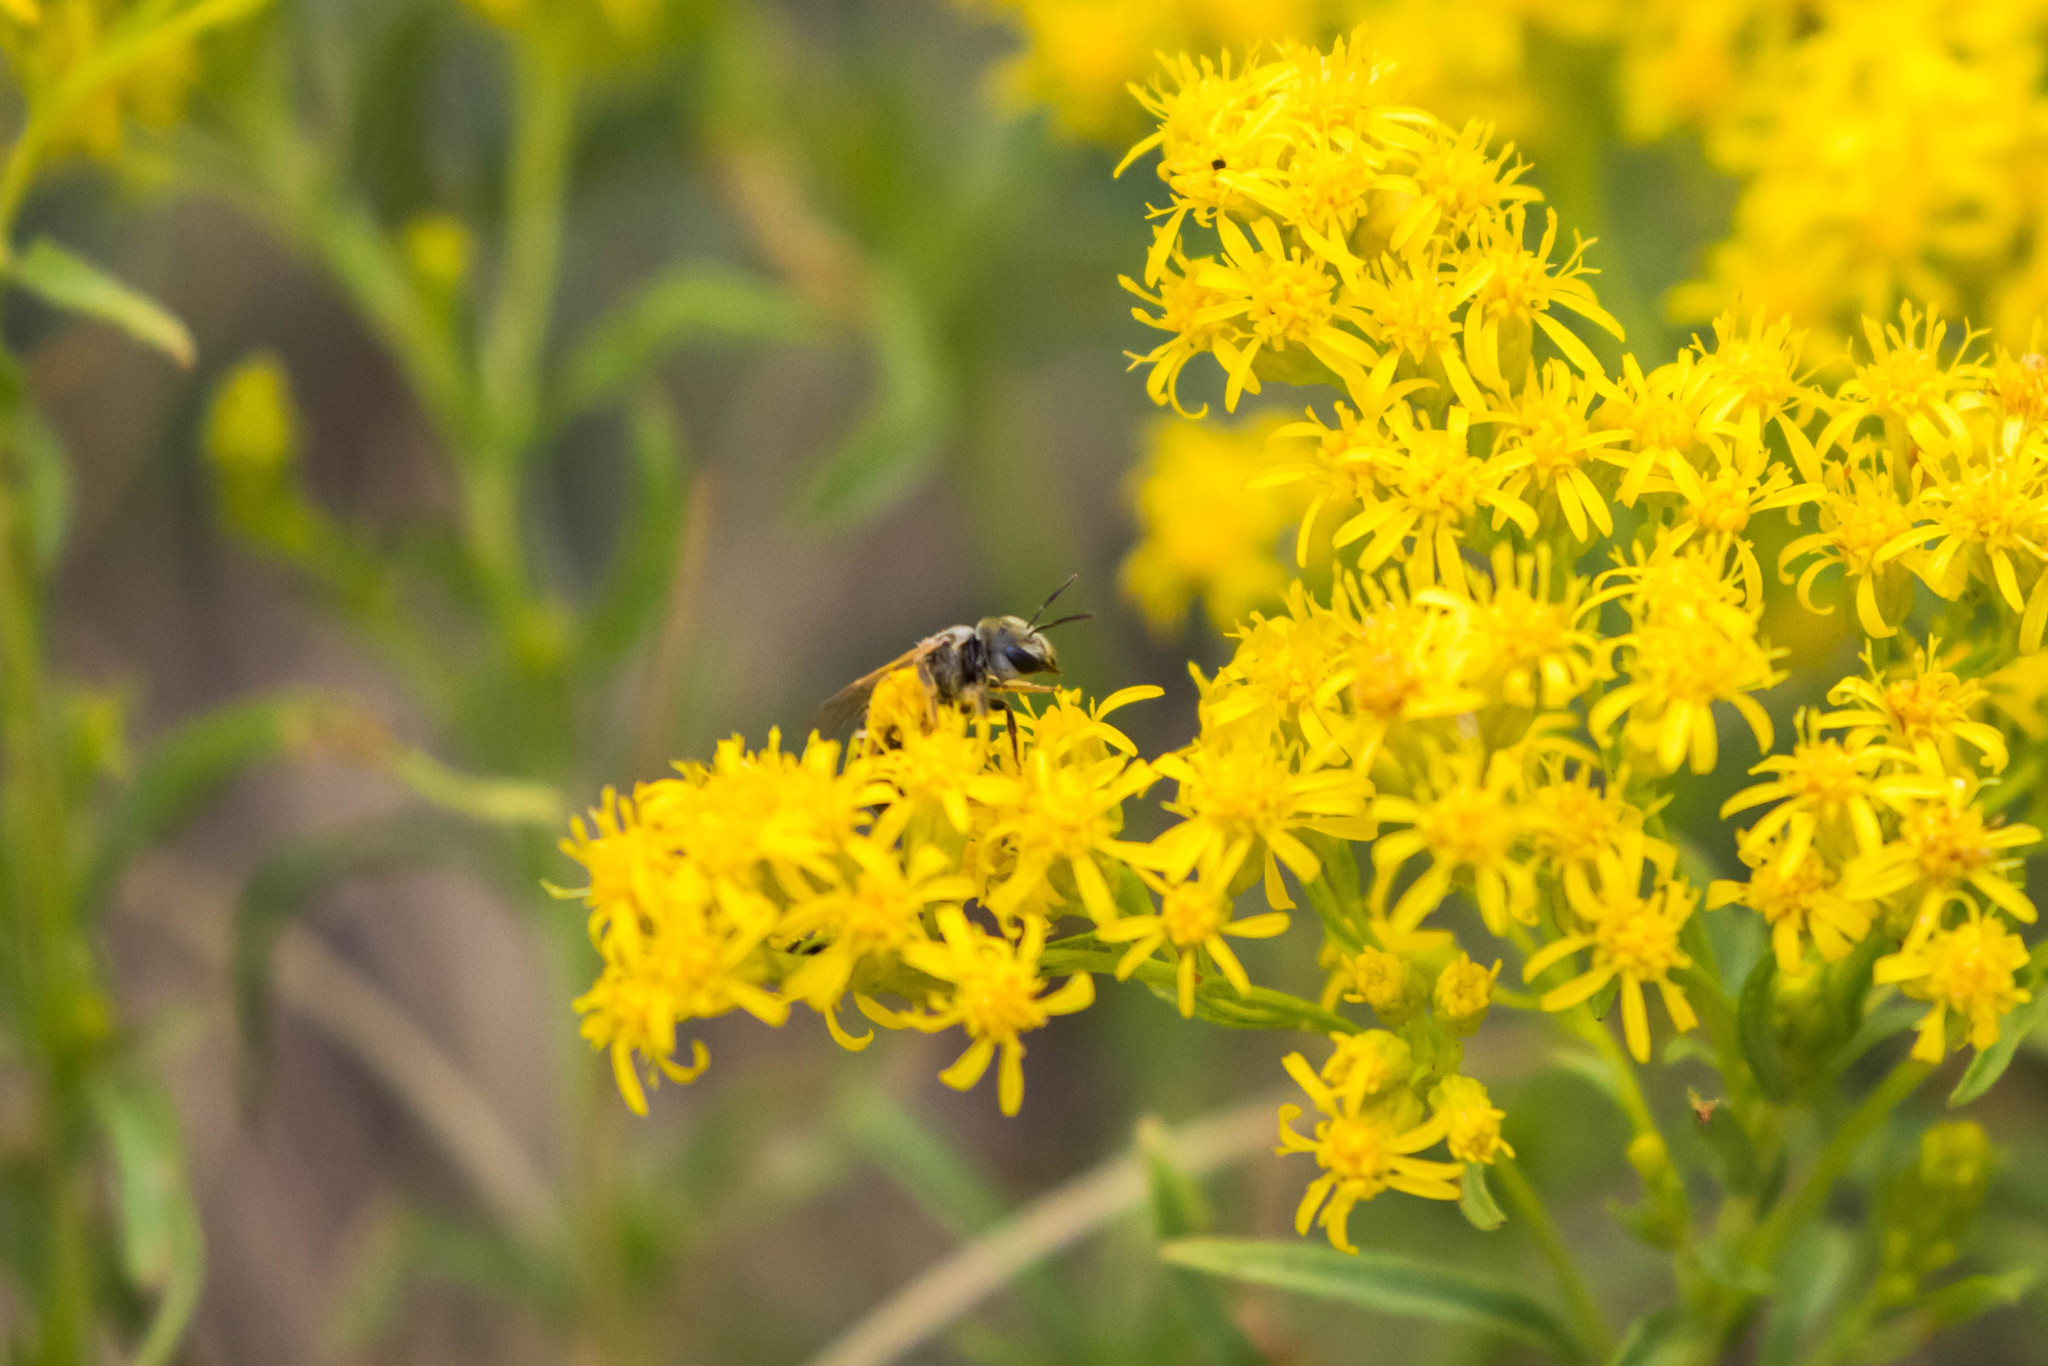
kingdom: Animalia
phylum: Arthropoda
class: Insecta
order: Hymenoptera
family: Halictidae
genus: Halictus
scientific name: Halictus ligatus
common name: Ligated furrow bee
